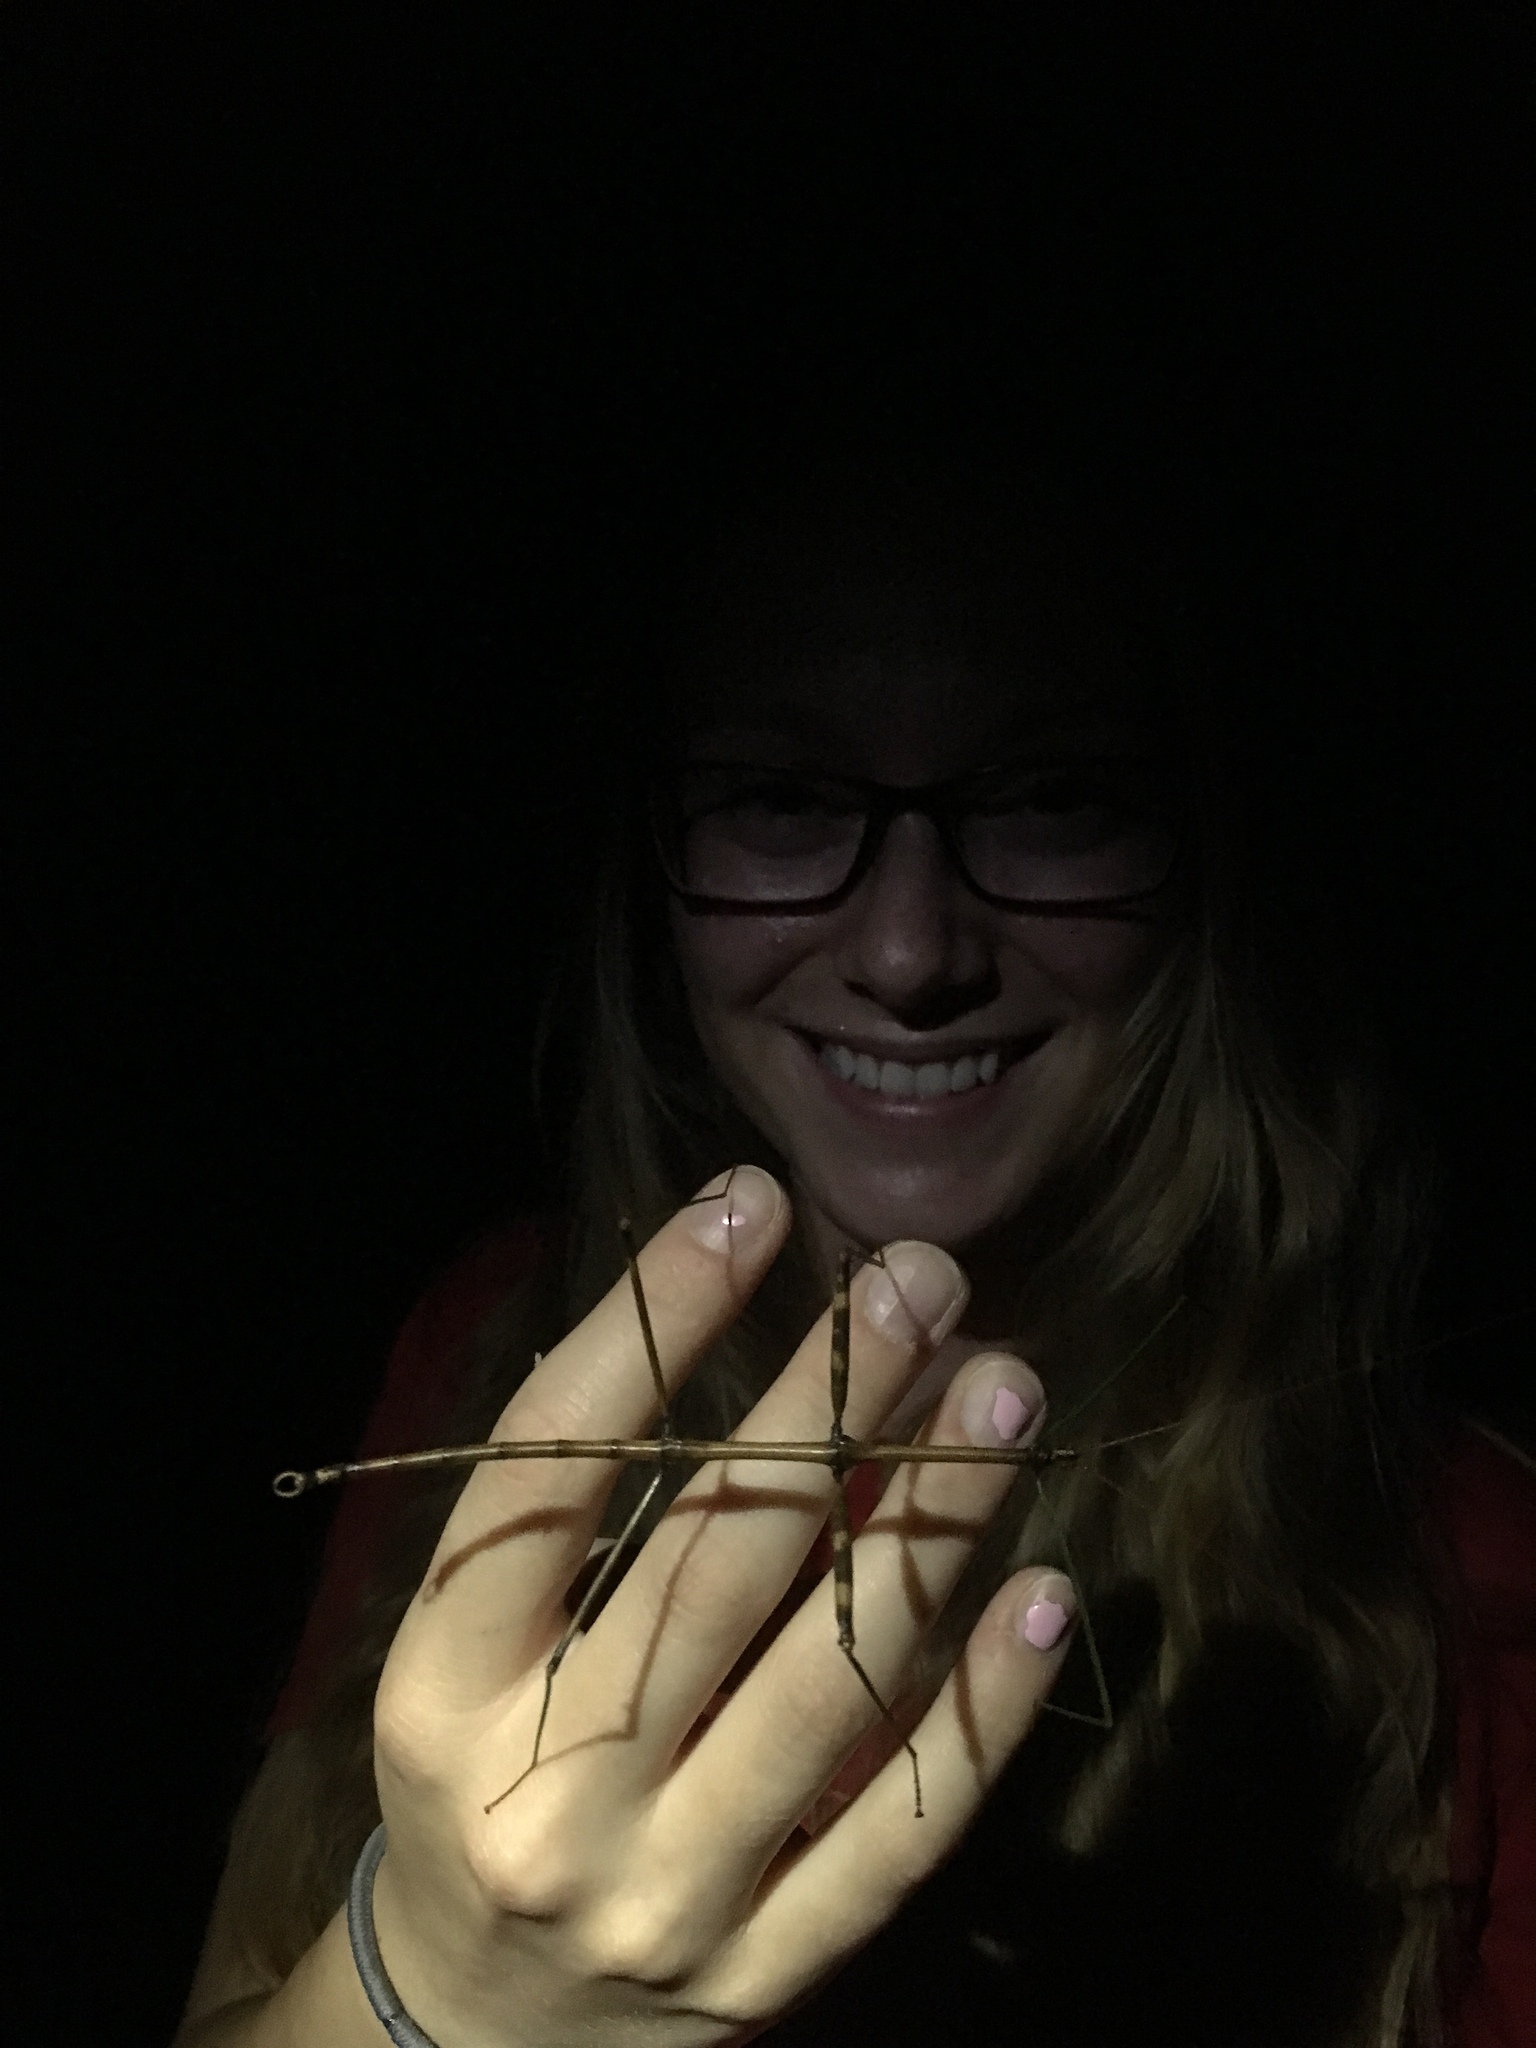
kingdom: Animalia
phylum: Arthropoda
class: Insecta
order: Phasmida
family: Diapheromeridae
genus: Diapheromera
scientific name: Diapheromera femorata
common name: Common american walkingstick
